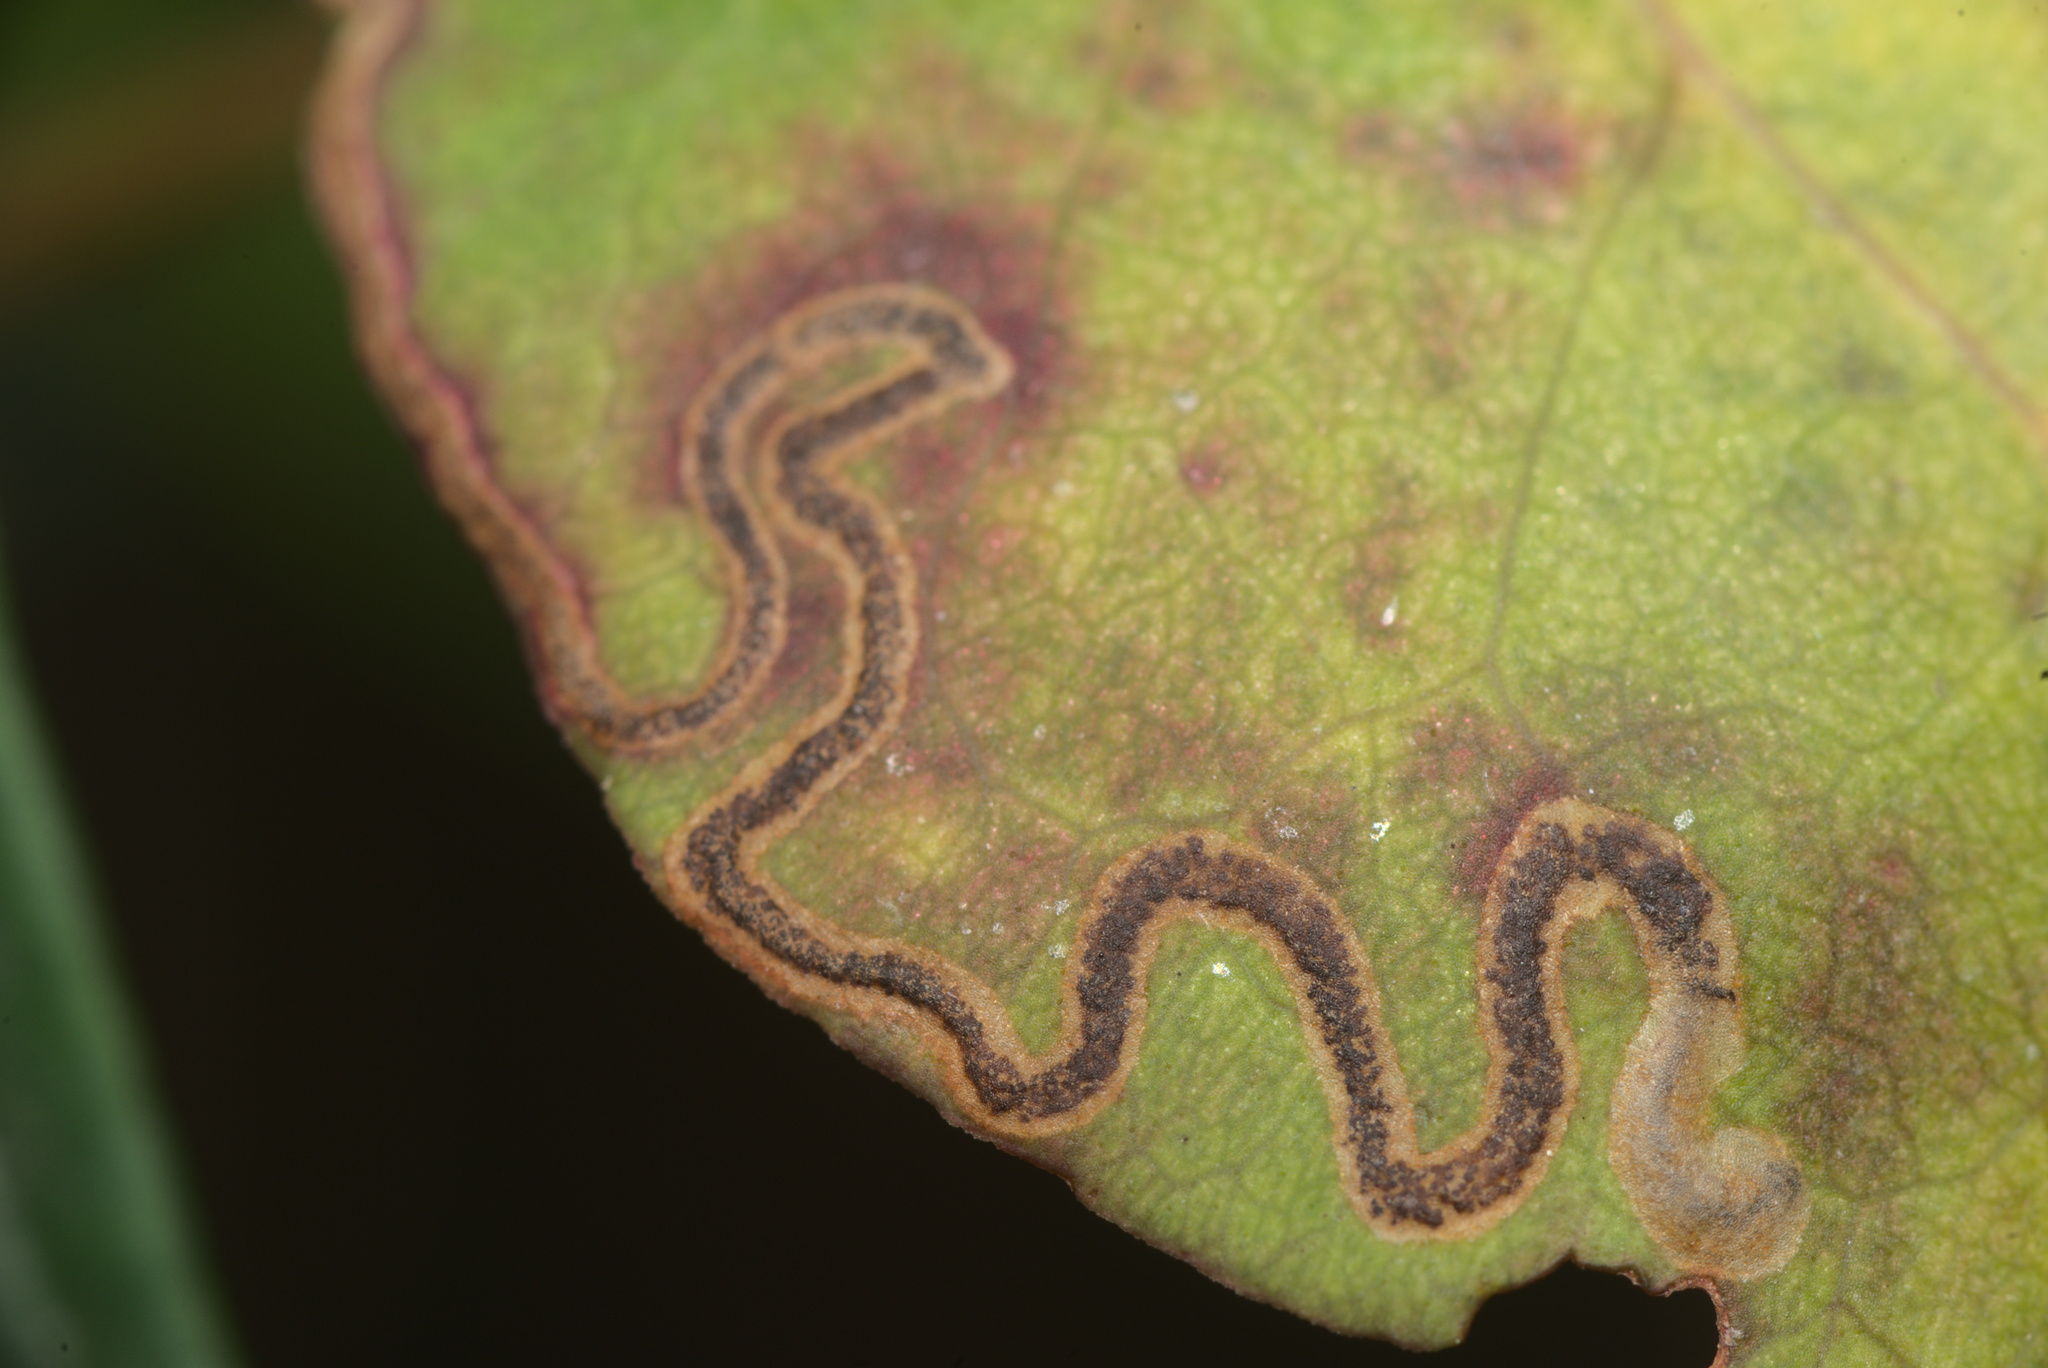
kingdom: Animalia
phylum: Arthropoda
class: Insecta
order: Lepidoptera
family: Momphidae
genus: Zapyrastra
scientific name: Zapyrastra calliphana
